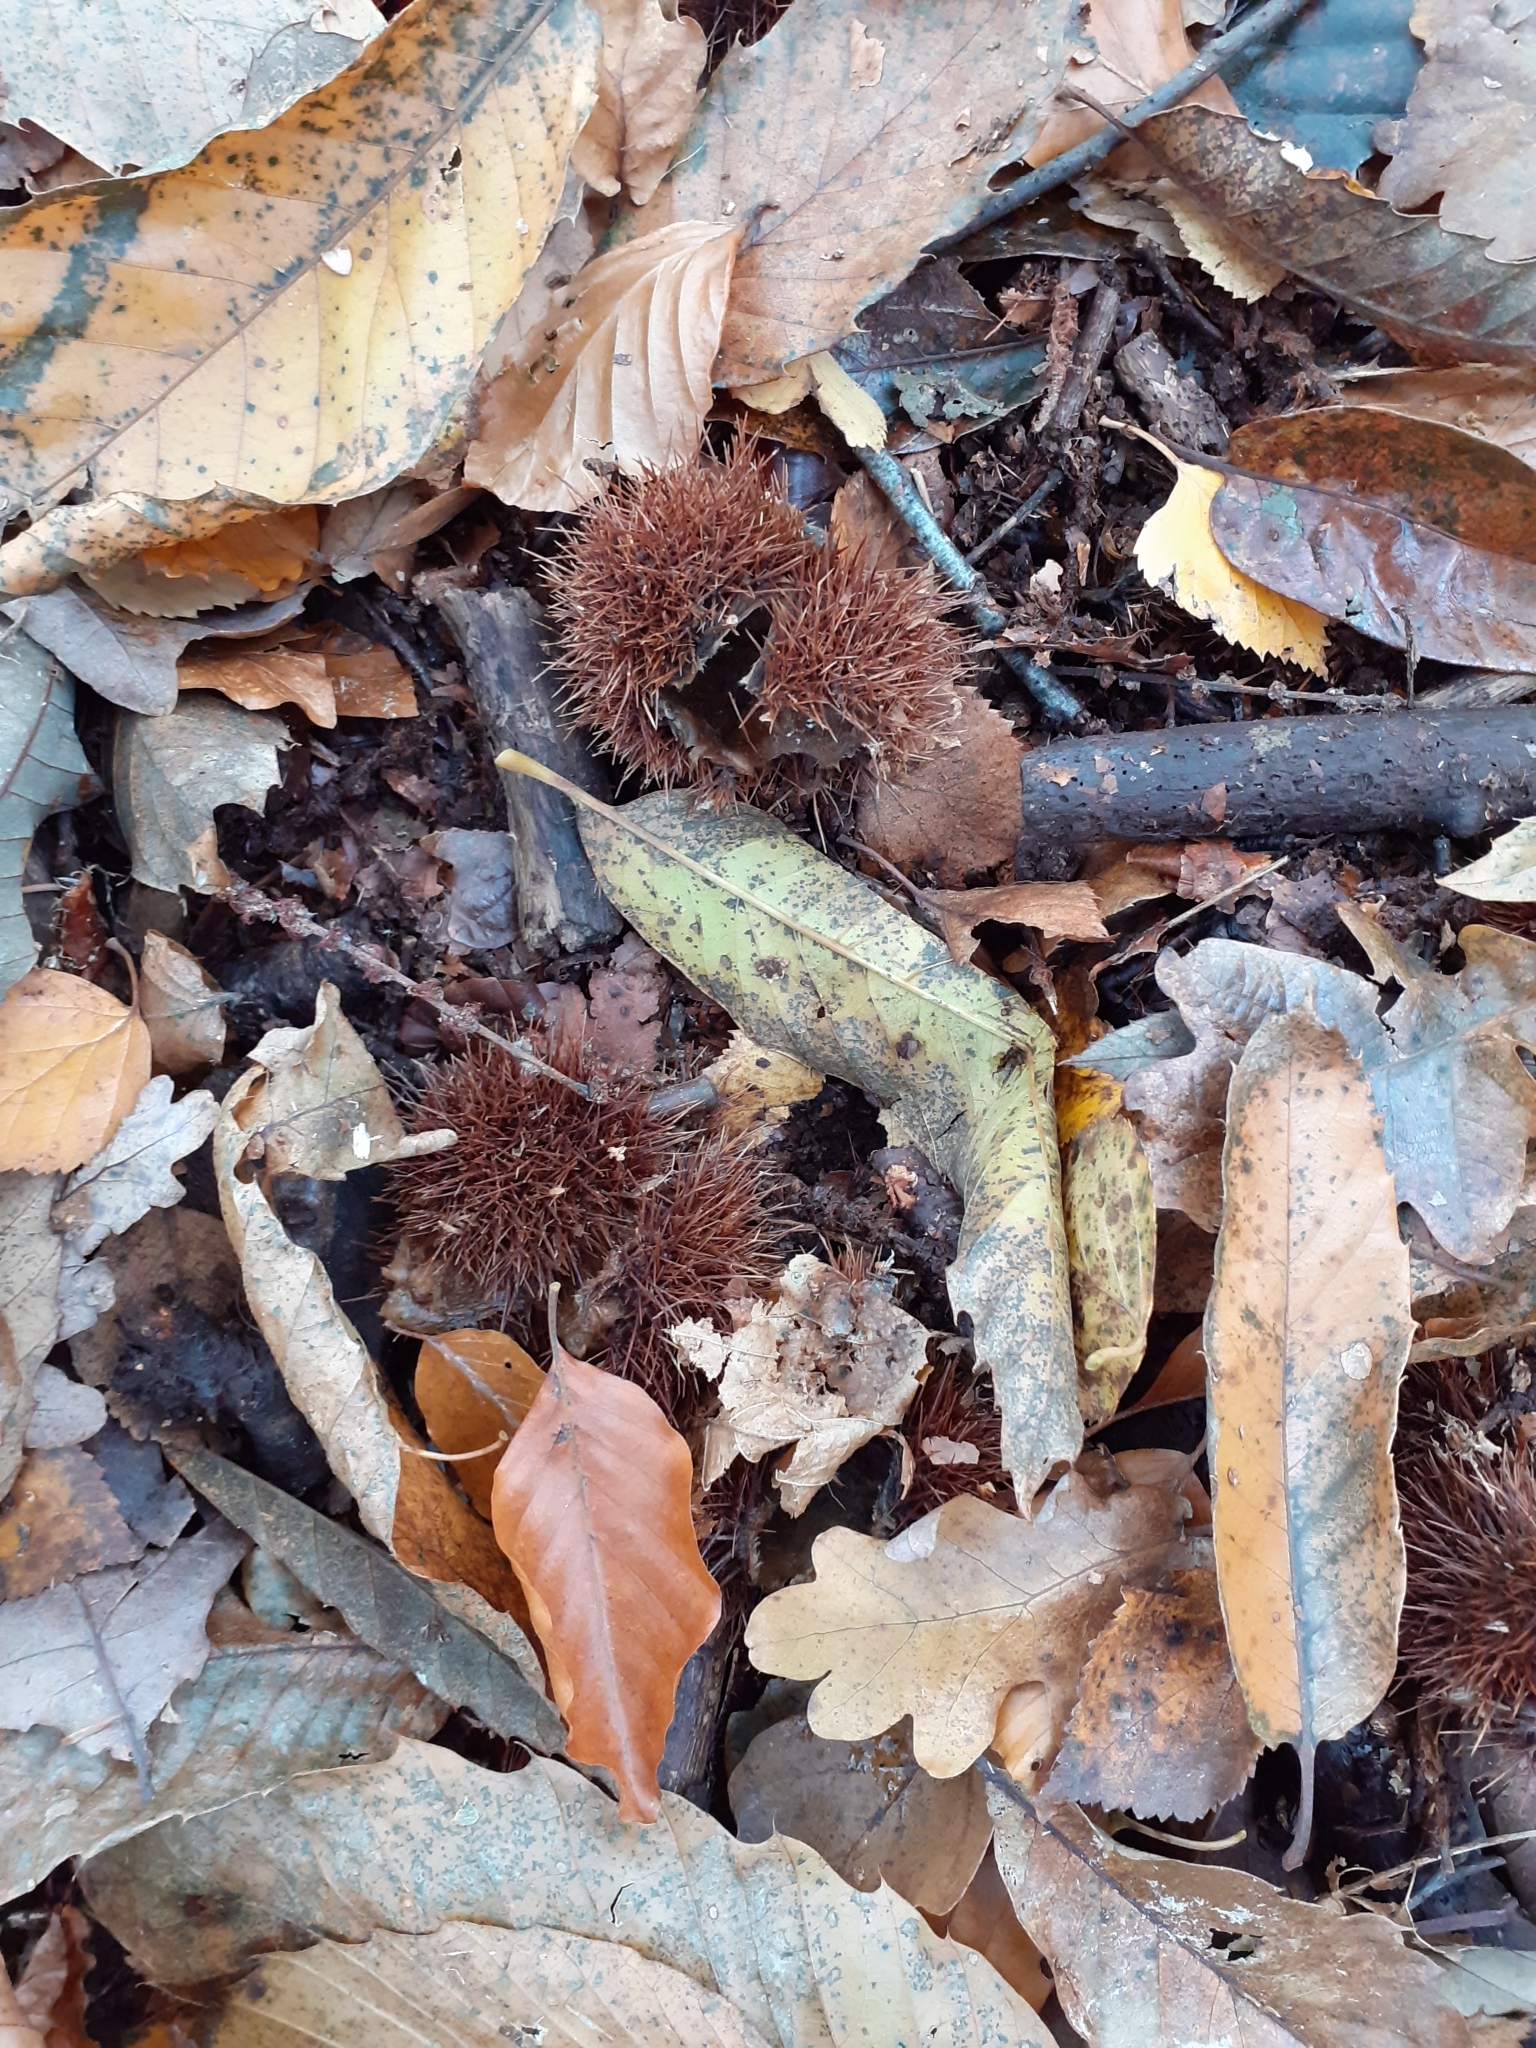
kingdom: Plantae
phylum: Tracheophyta
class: Magnoliopsida
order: Fagales
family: Fagaceae
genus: Castanea
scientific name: Castanea sativa
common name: Sweet chestnut
